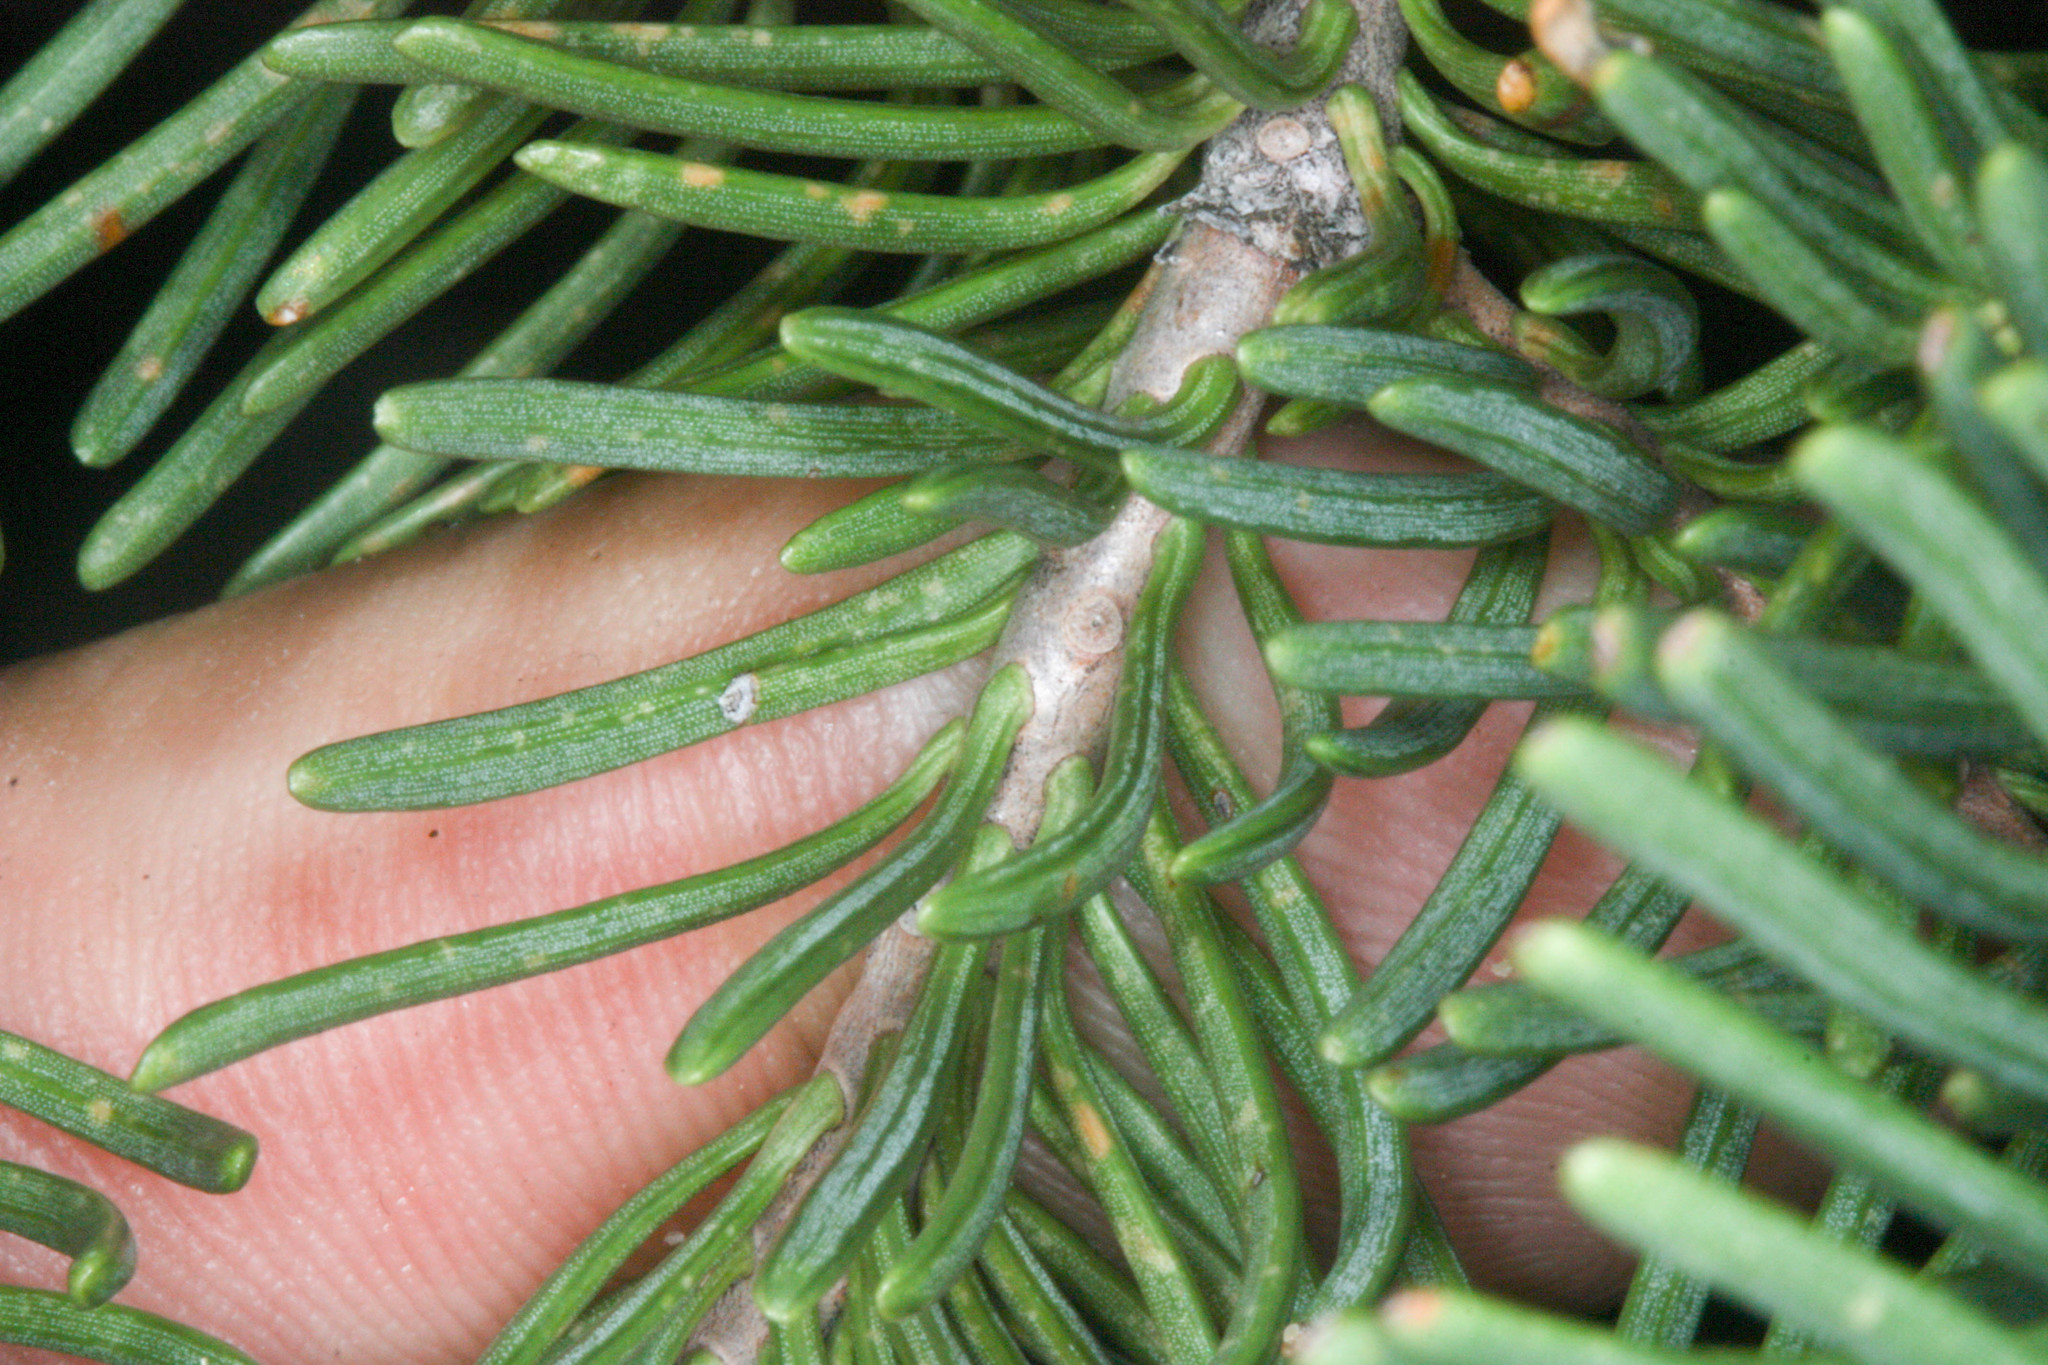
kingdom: Plantae
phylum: Tracheophyta
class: Pinopsida
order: Pinales
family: Pinaceae
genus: Abies
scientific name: Abies magnifica bis
